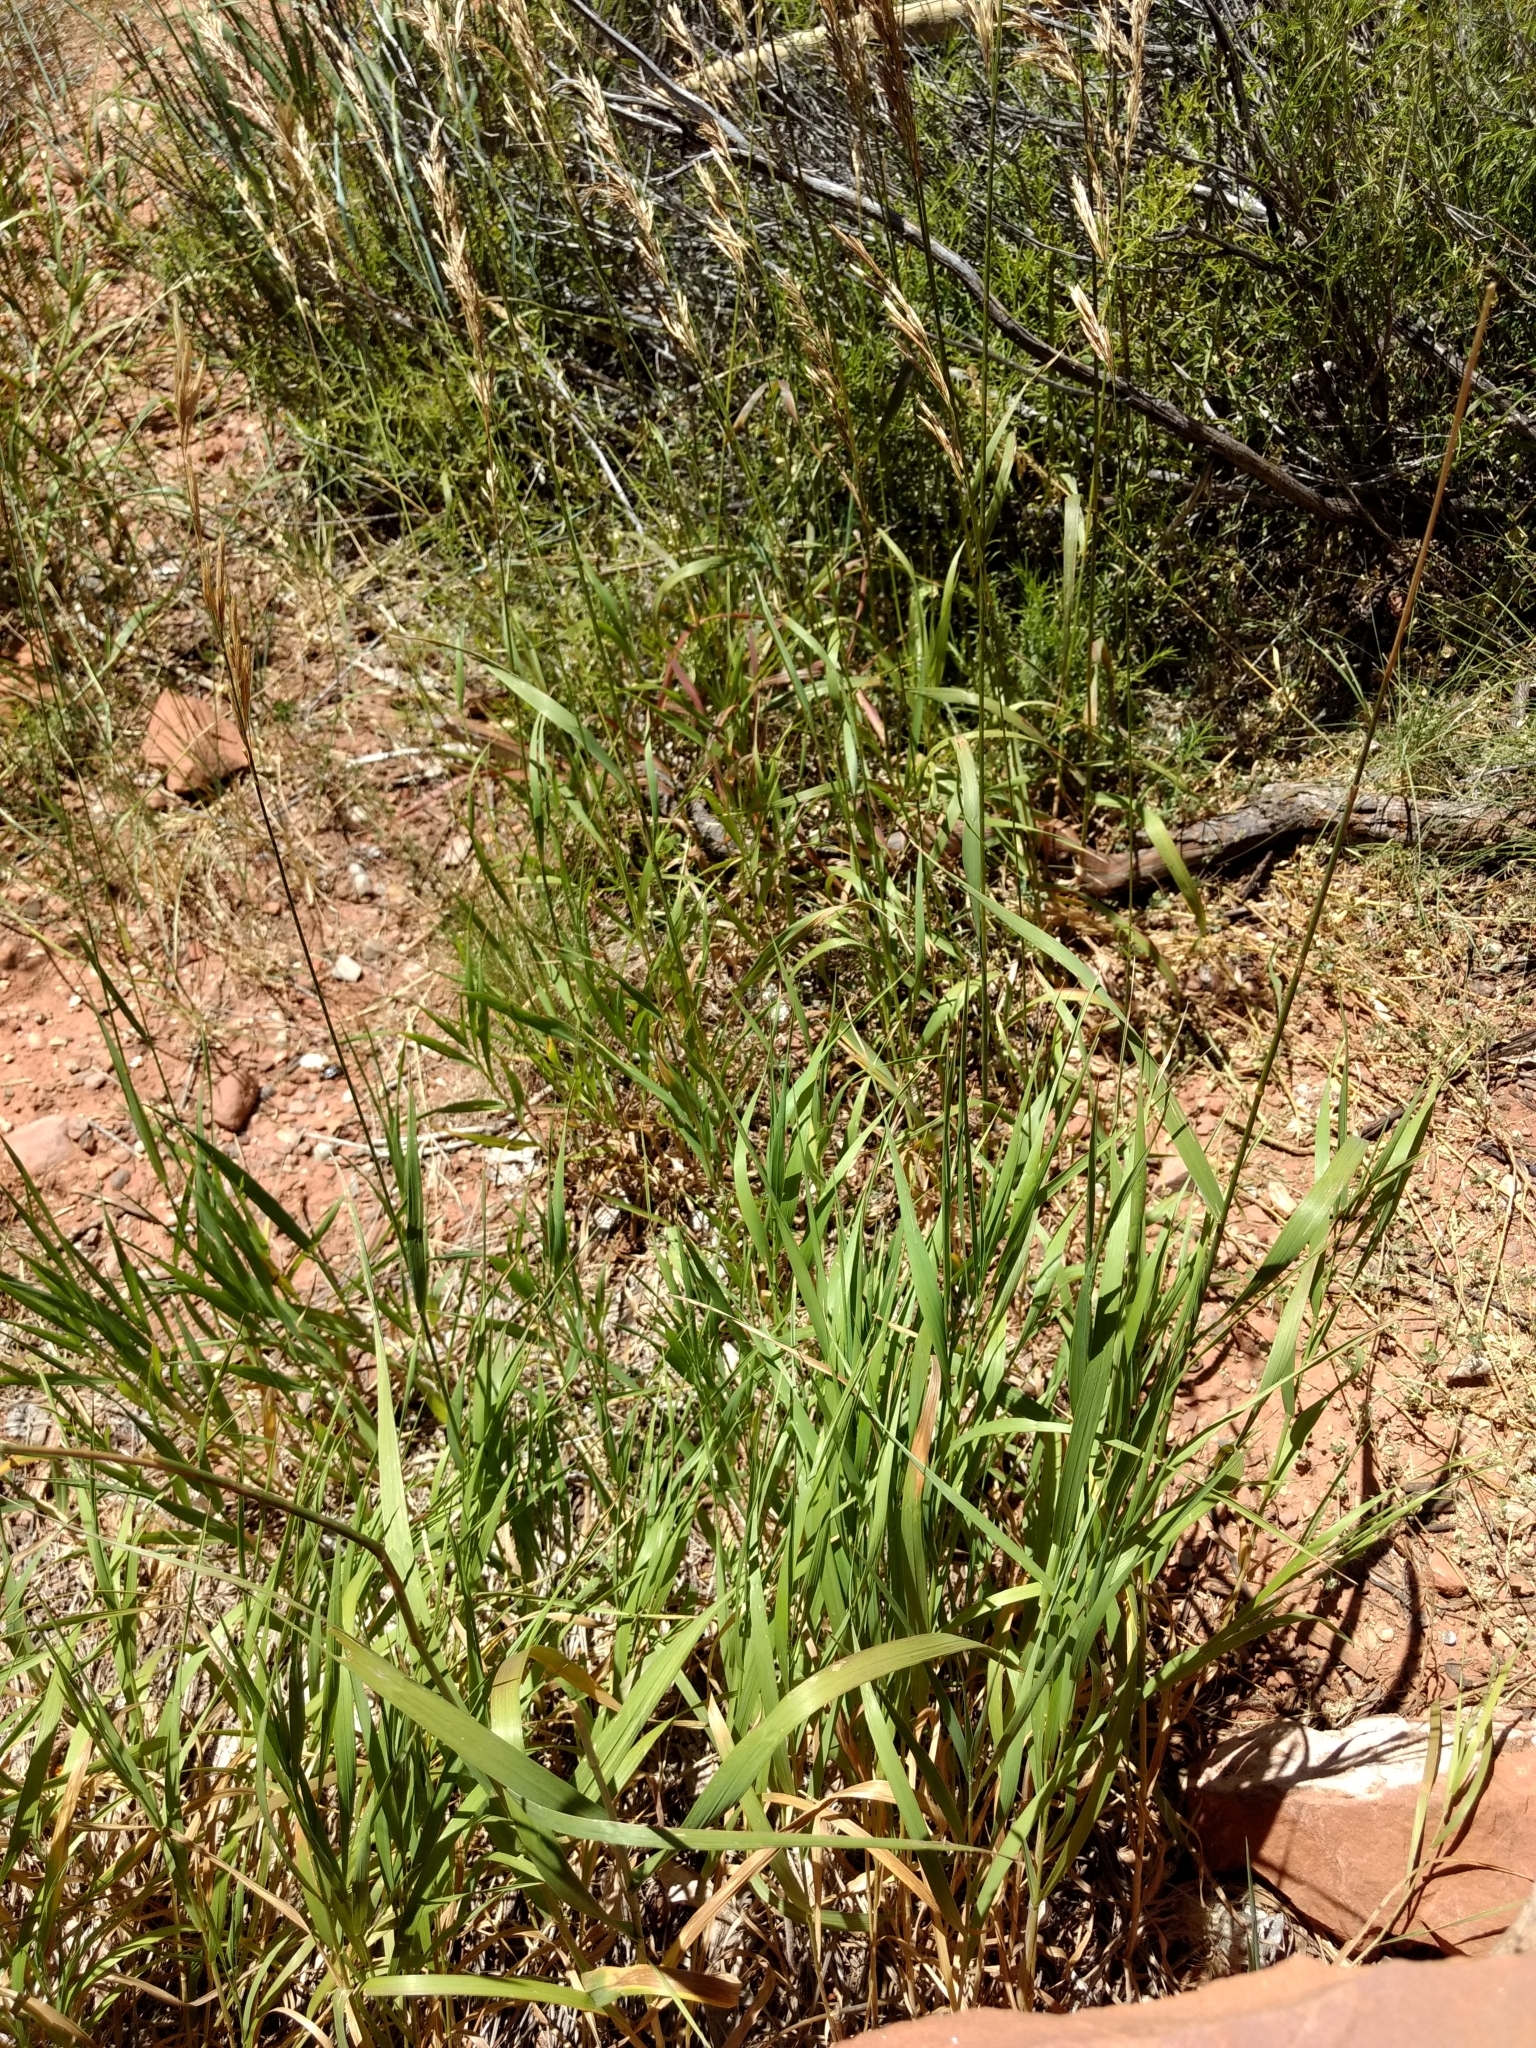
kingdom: Plantae
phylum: Tracheophyta
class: Liliopsida
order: Poales
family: Poaceae
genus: Bromus
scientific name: Bromus inermis
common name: Smooth brome
